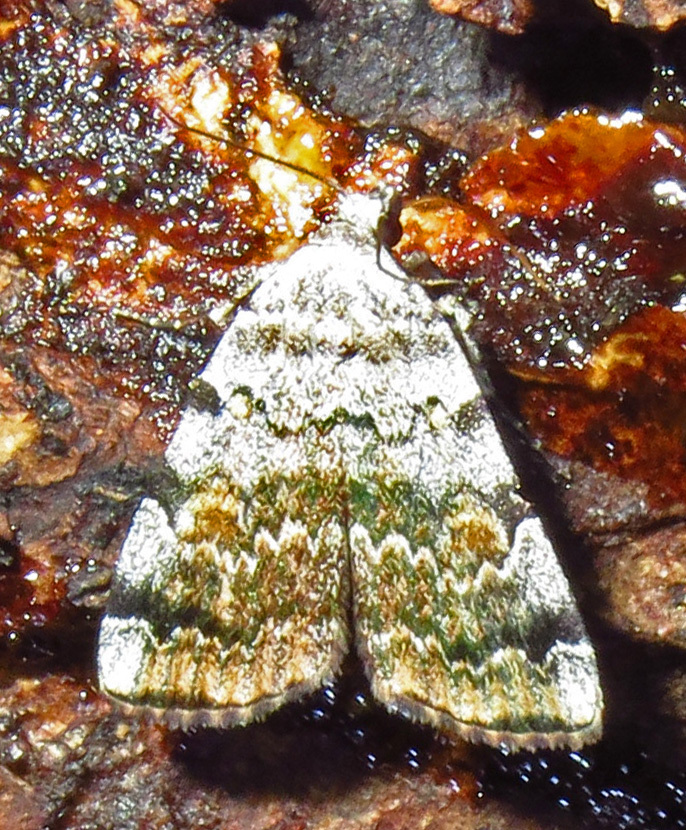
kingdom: Animalia
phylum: Arthropoda
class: Insecta
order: Lepidoptera
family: Erebidae
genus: Idia
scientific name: Idia americalis
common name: American idia moth
